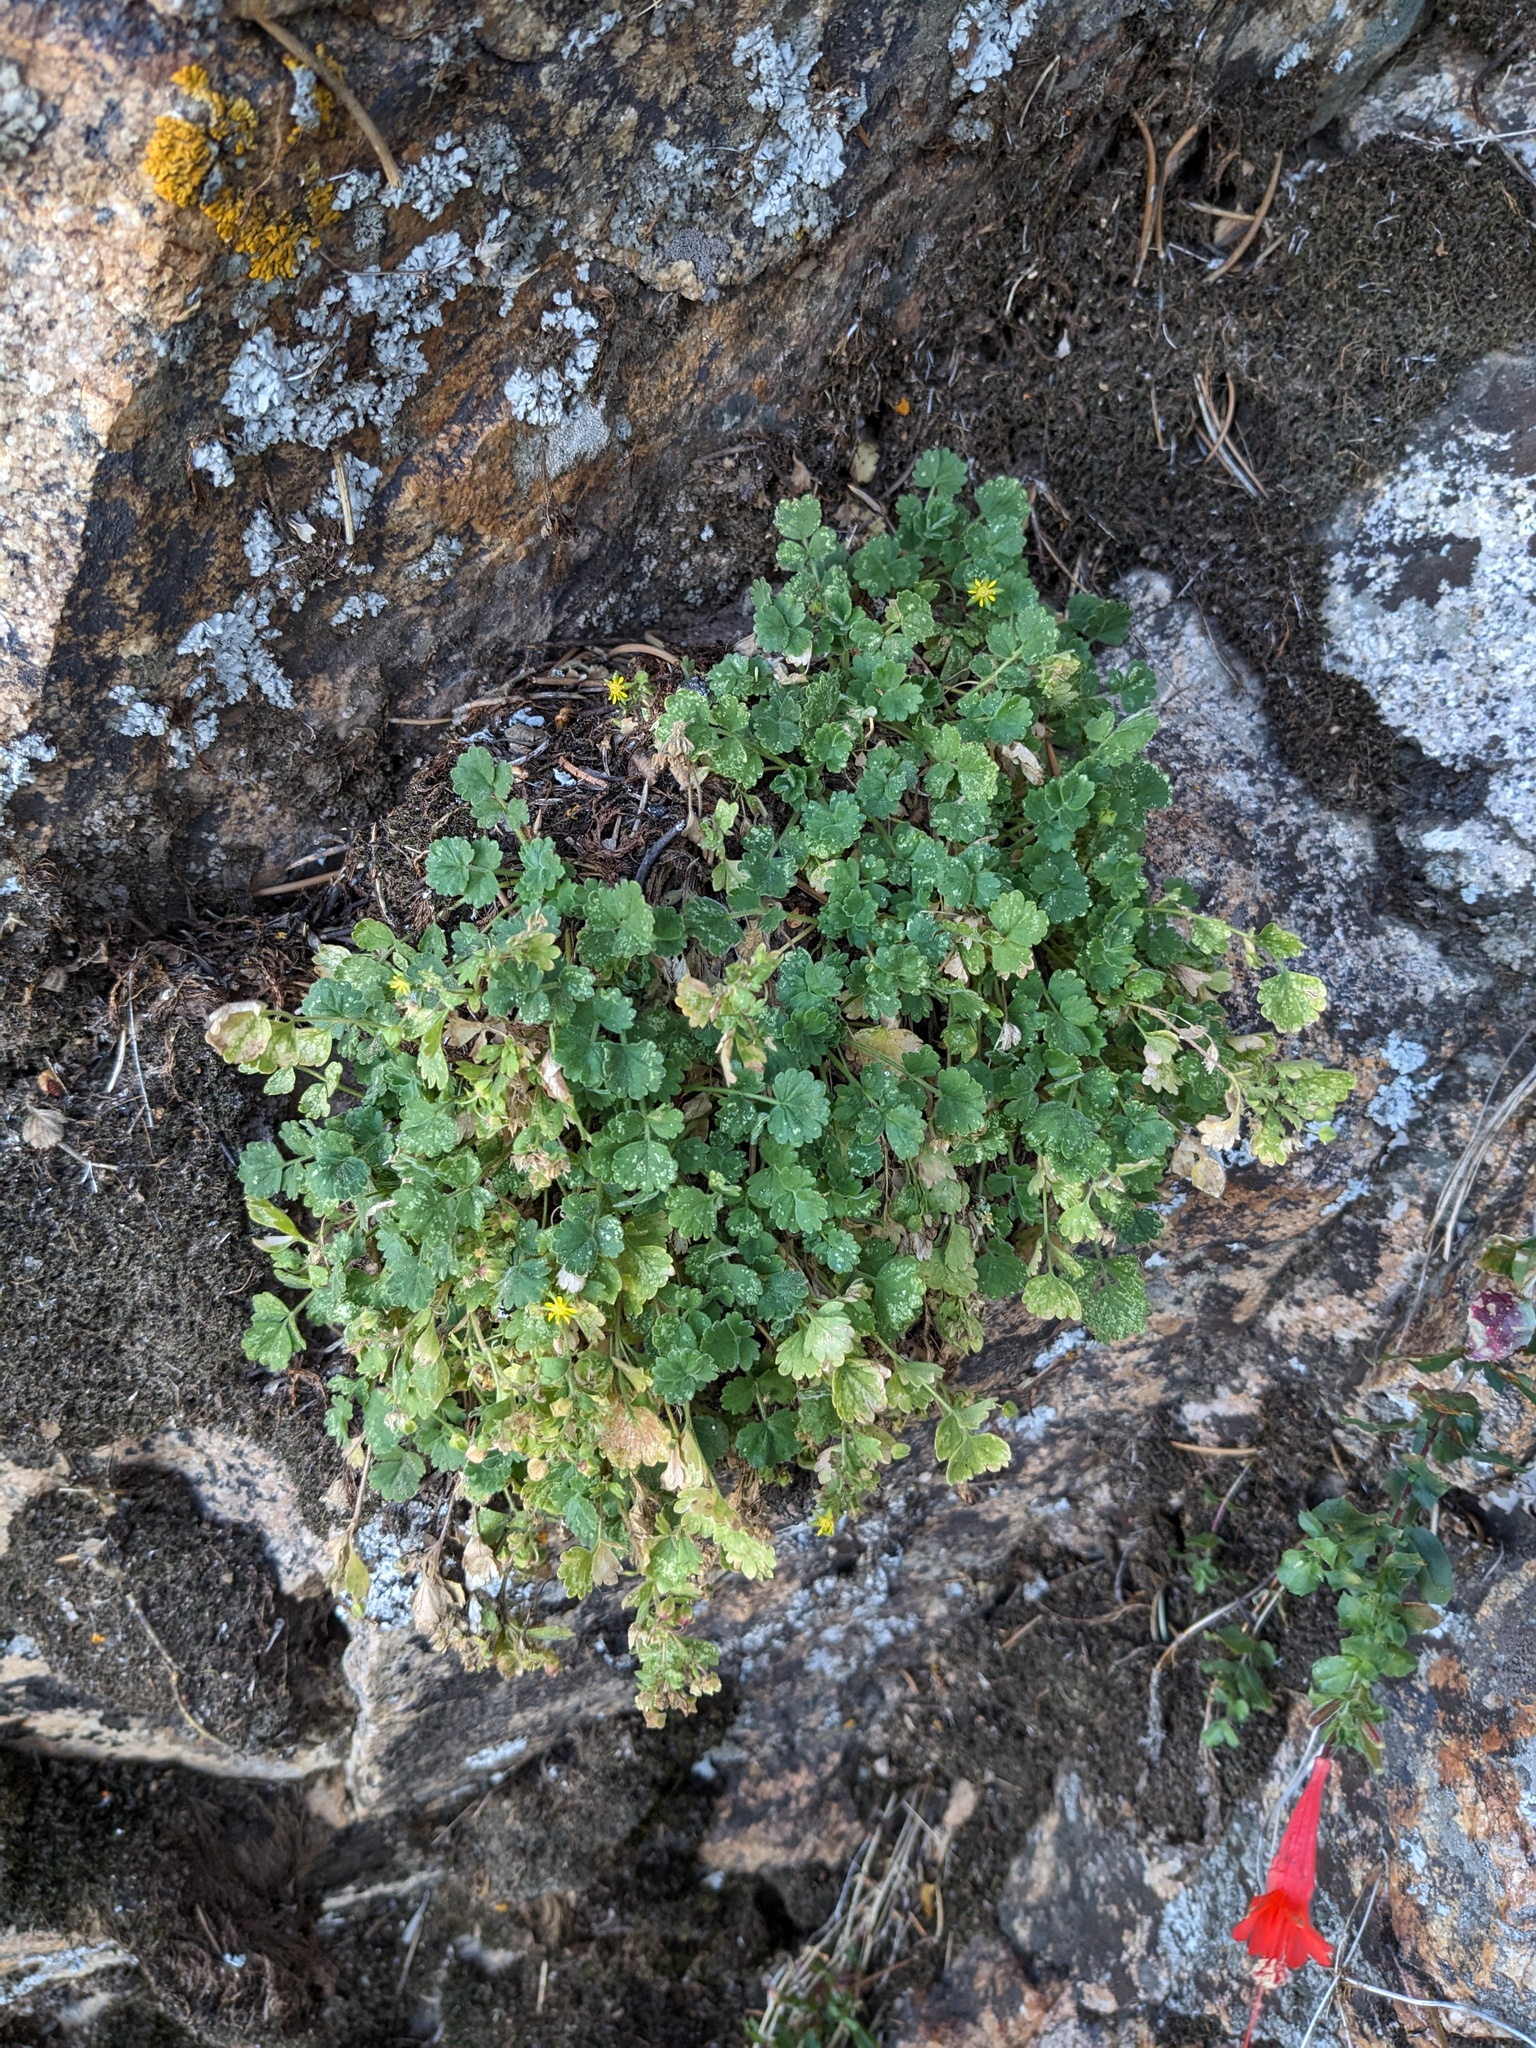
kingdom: Plantae
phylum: Tracheophyta
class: Magnoliopsida
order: Rosales
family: Rosaceae
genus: Potentilla
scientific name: Potentilla patellifera
